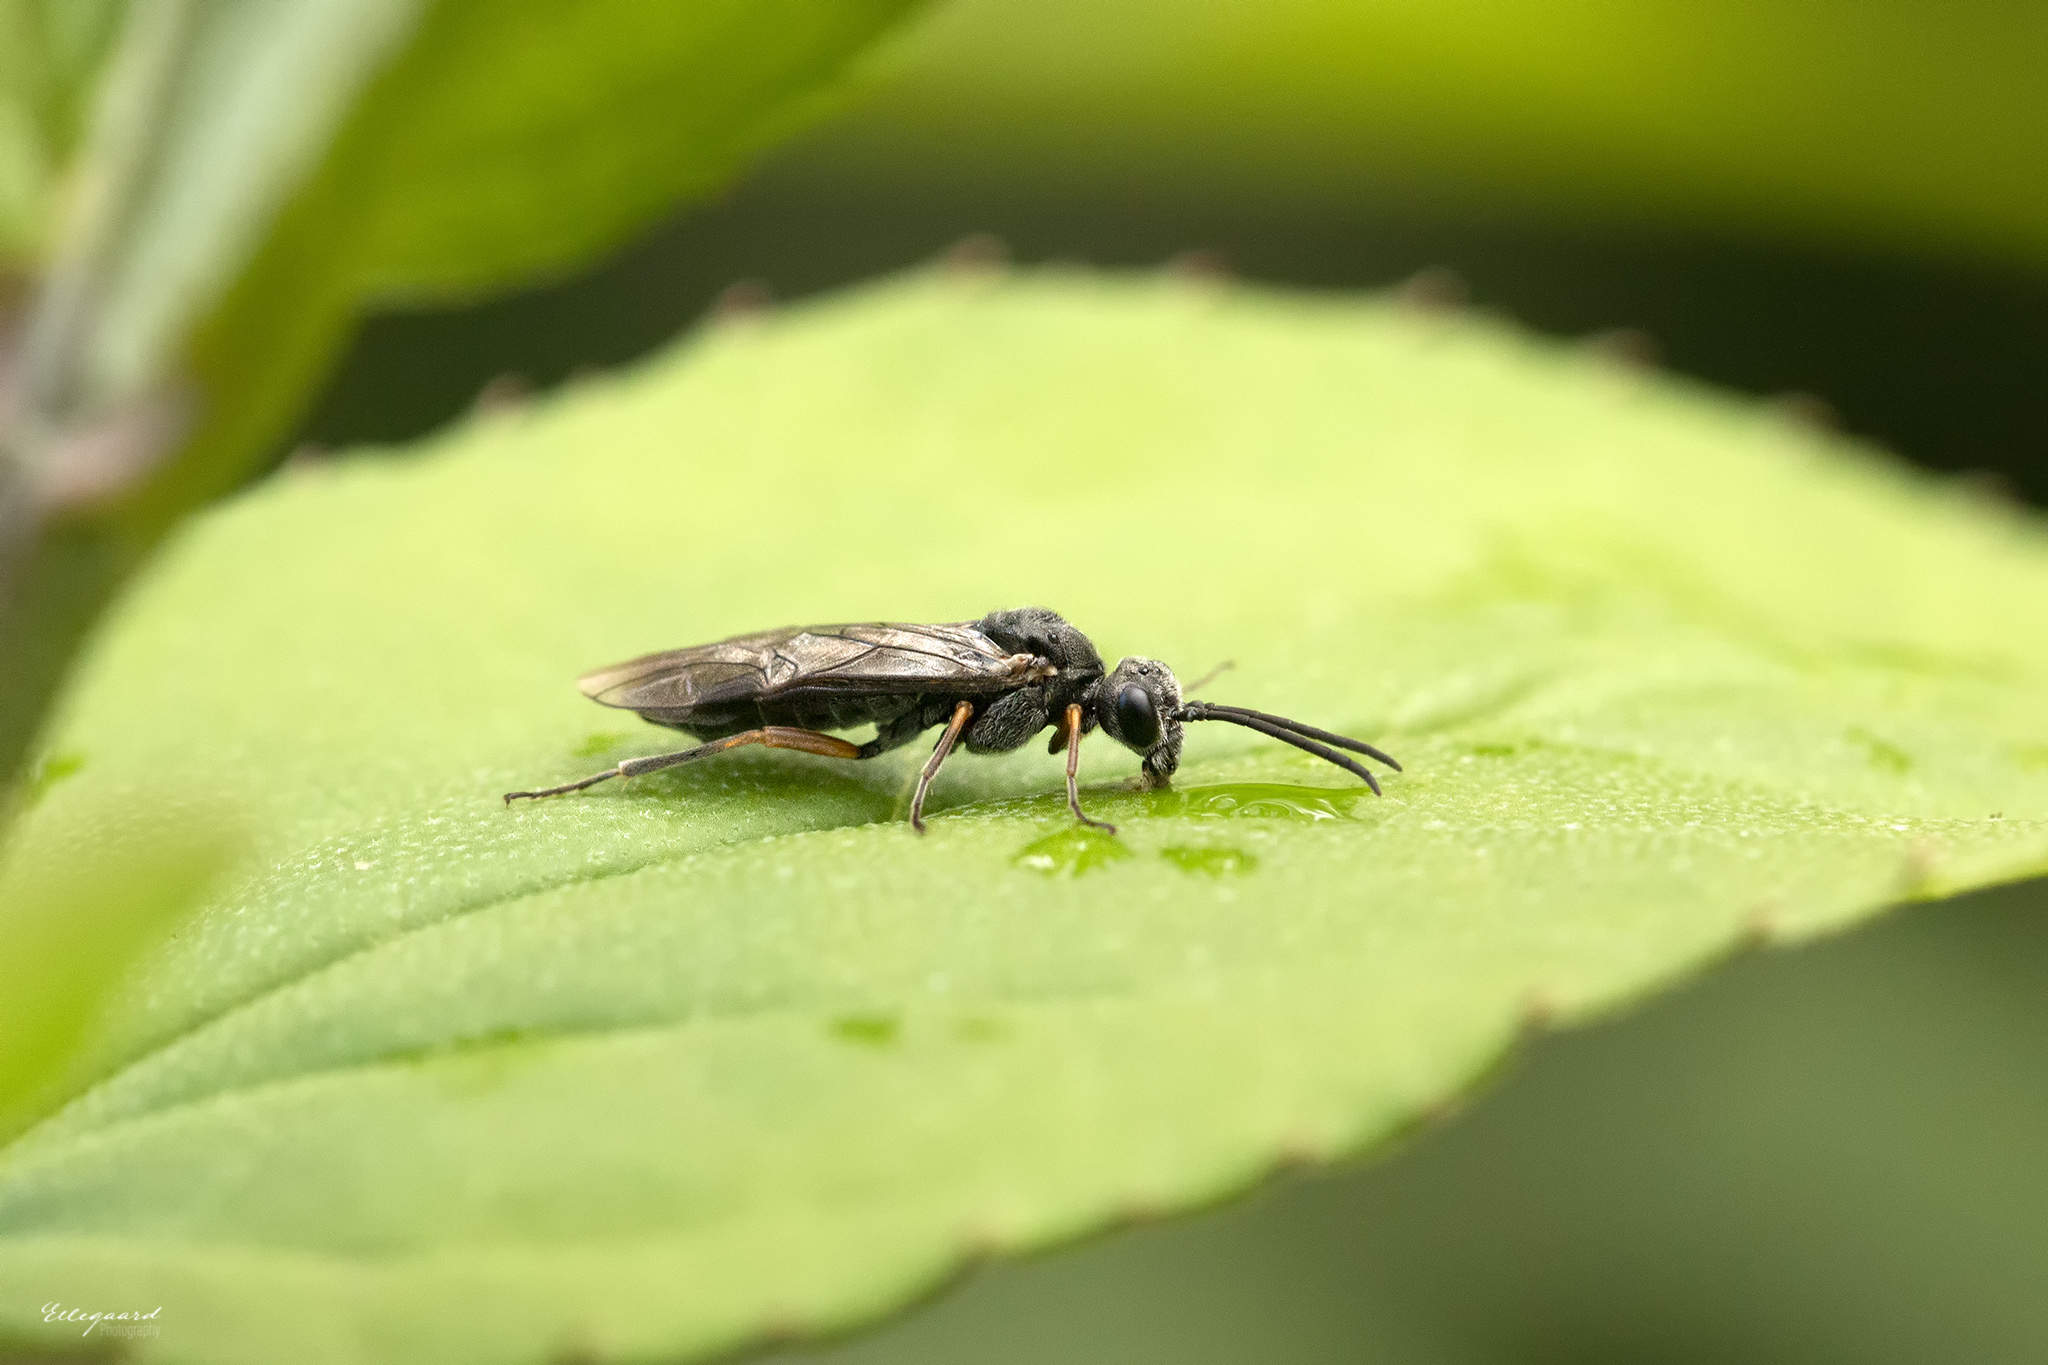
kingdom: Animalia
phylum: Arthropoda
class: Insecta
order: Hymenoptera
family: Tenthredinidae
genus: Dolerus
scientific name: Dolerus vestigialis
